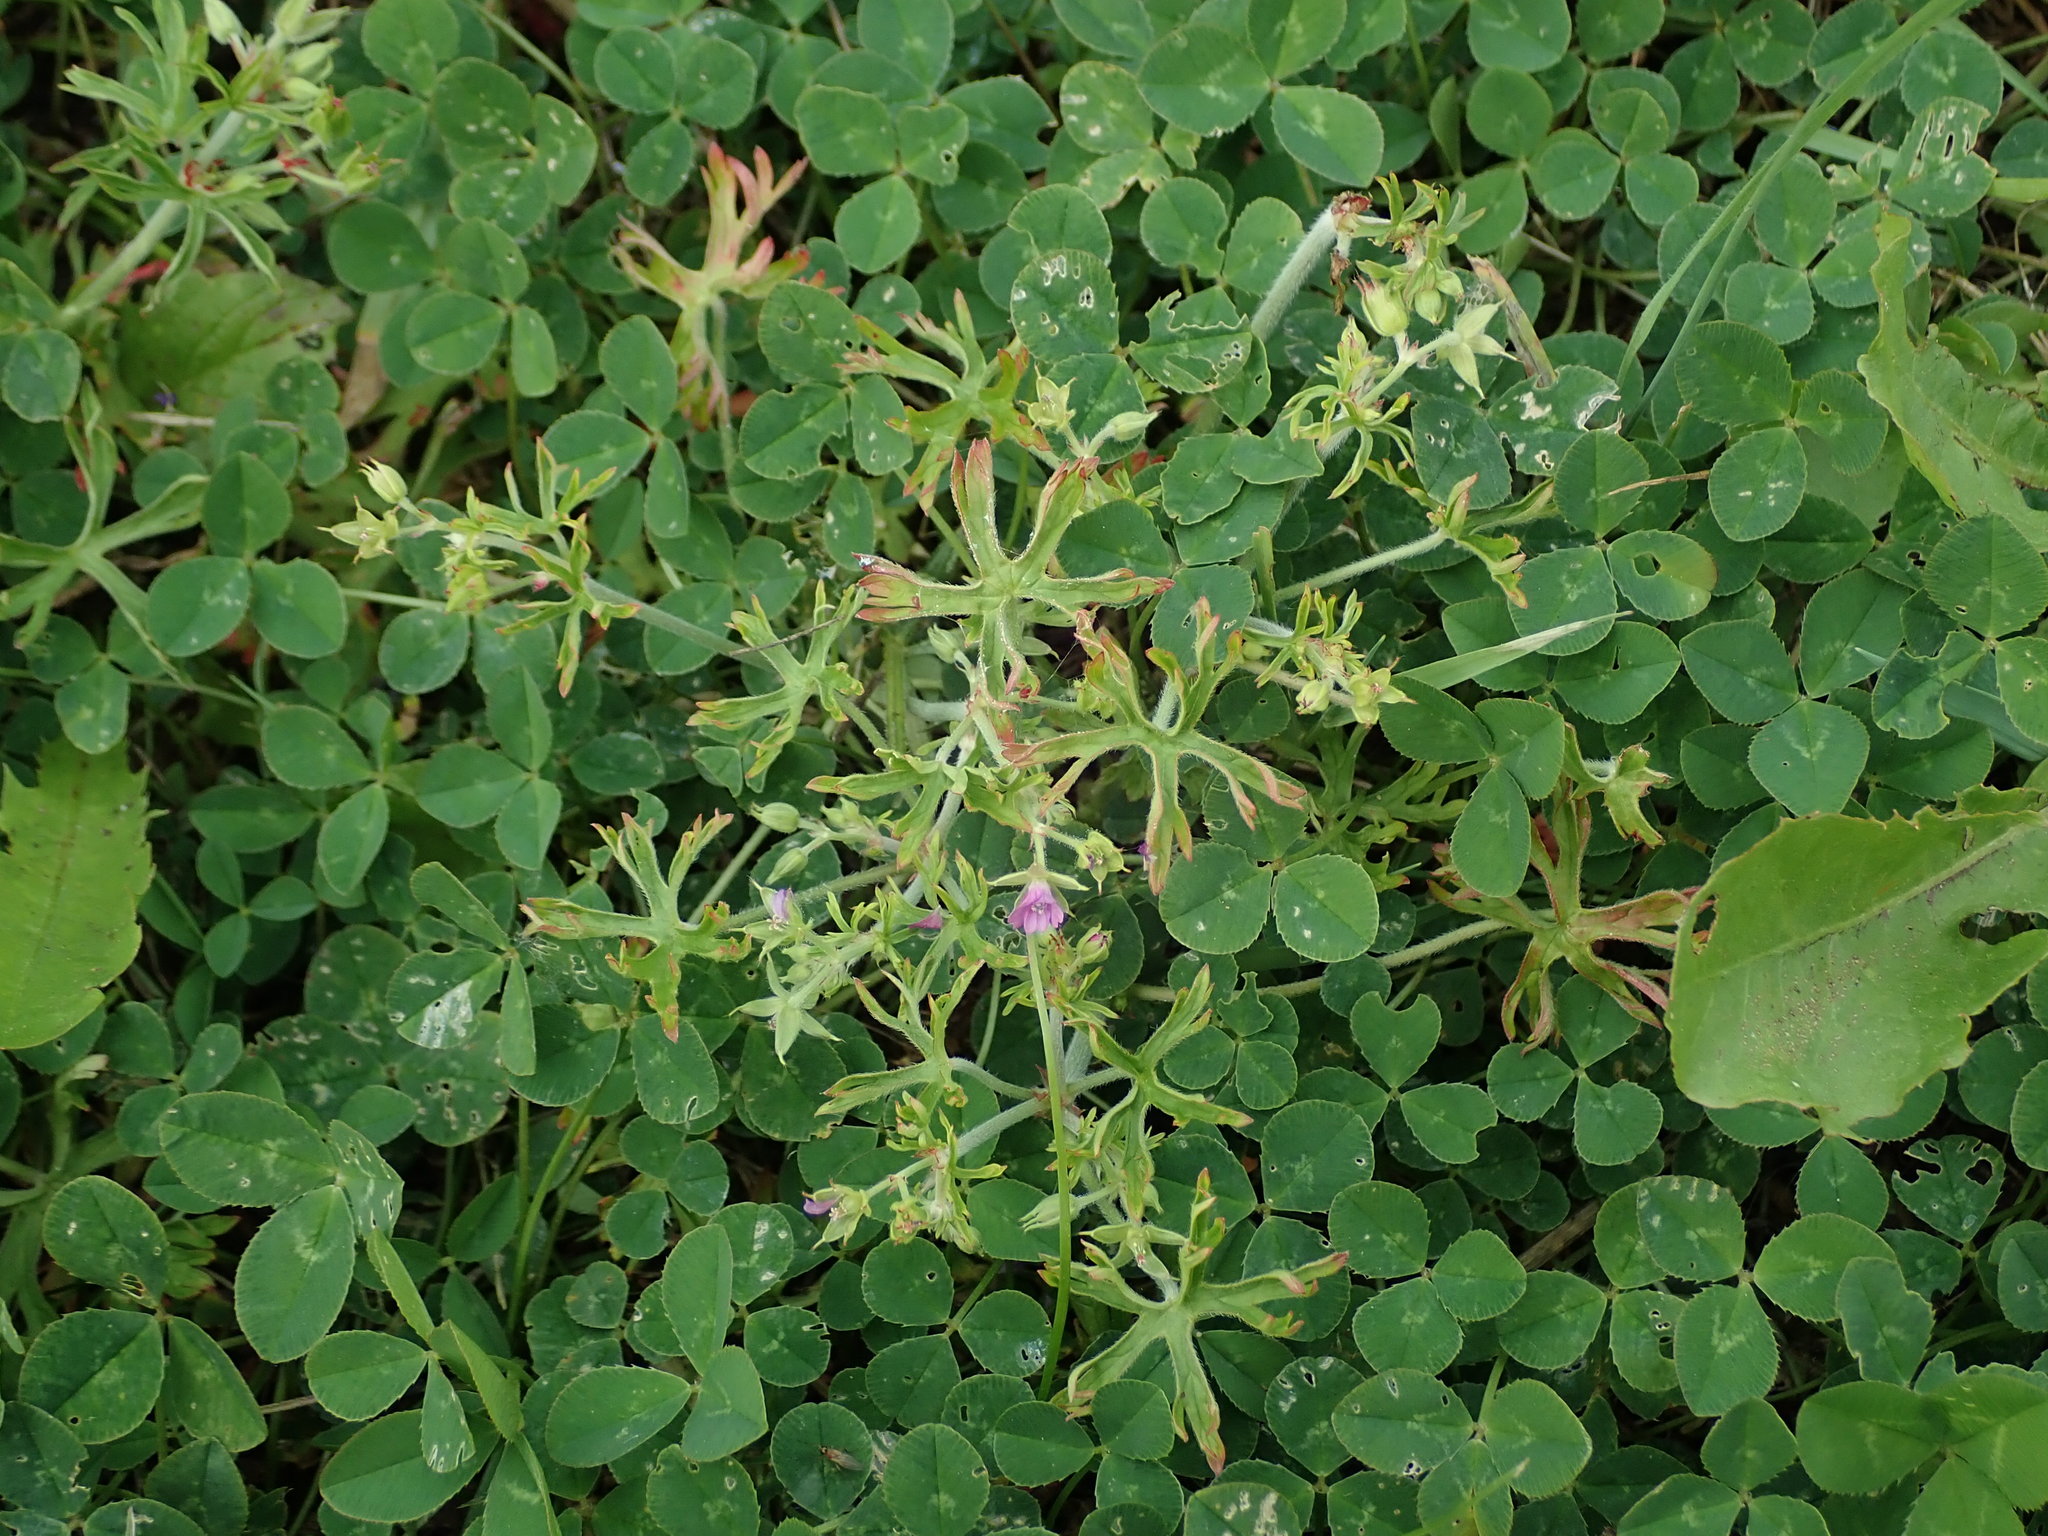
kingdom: Plantae
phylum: Tracheophyta
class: Magnoliopsida
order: Geraniales
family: Geraniaceae
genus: Geranium
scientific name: Geranium dissectum
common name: Cut-leaved crane's-bill
